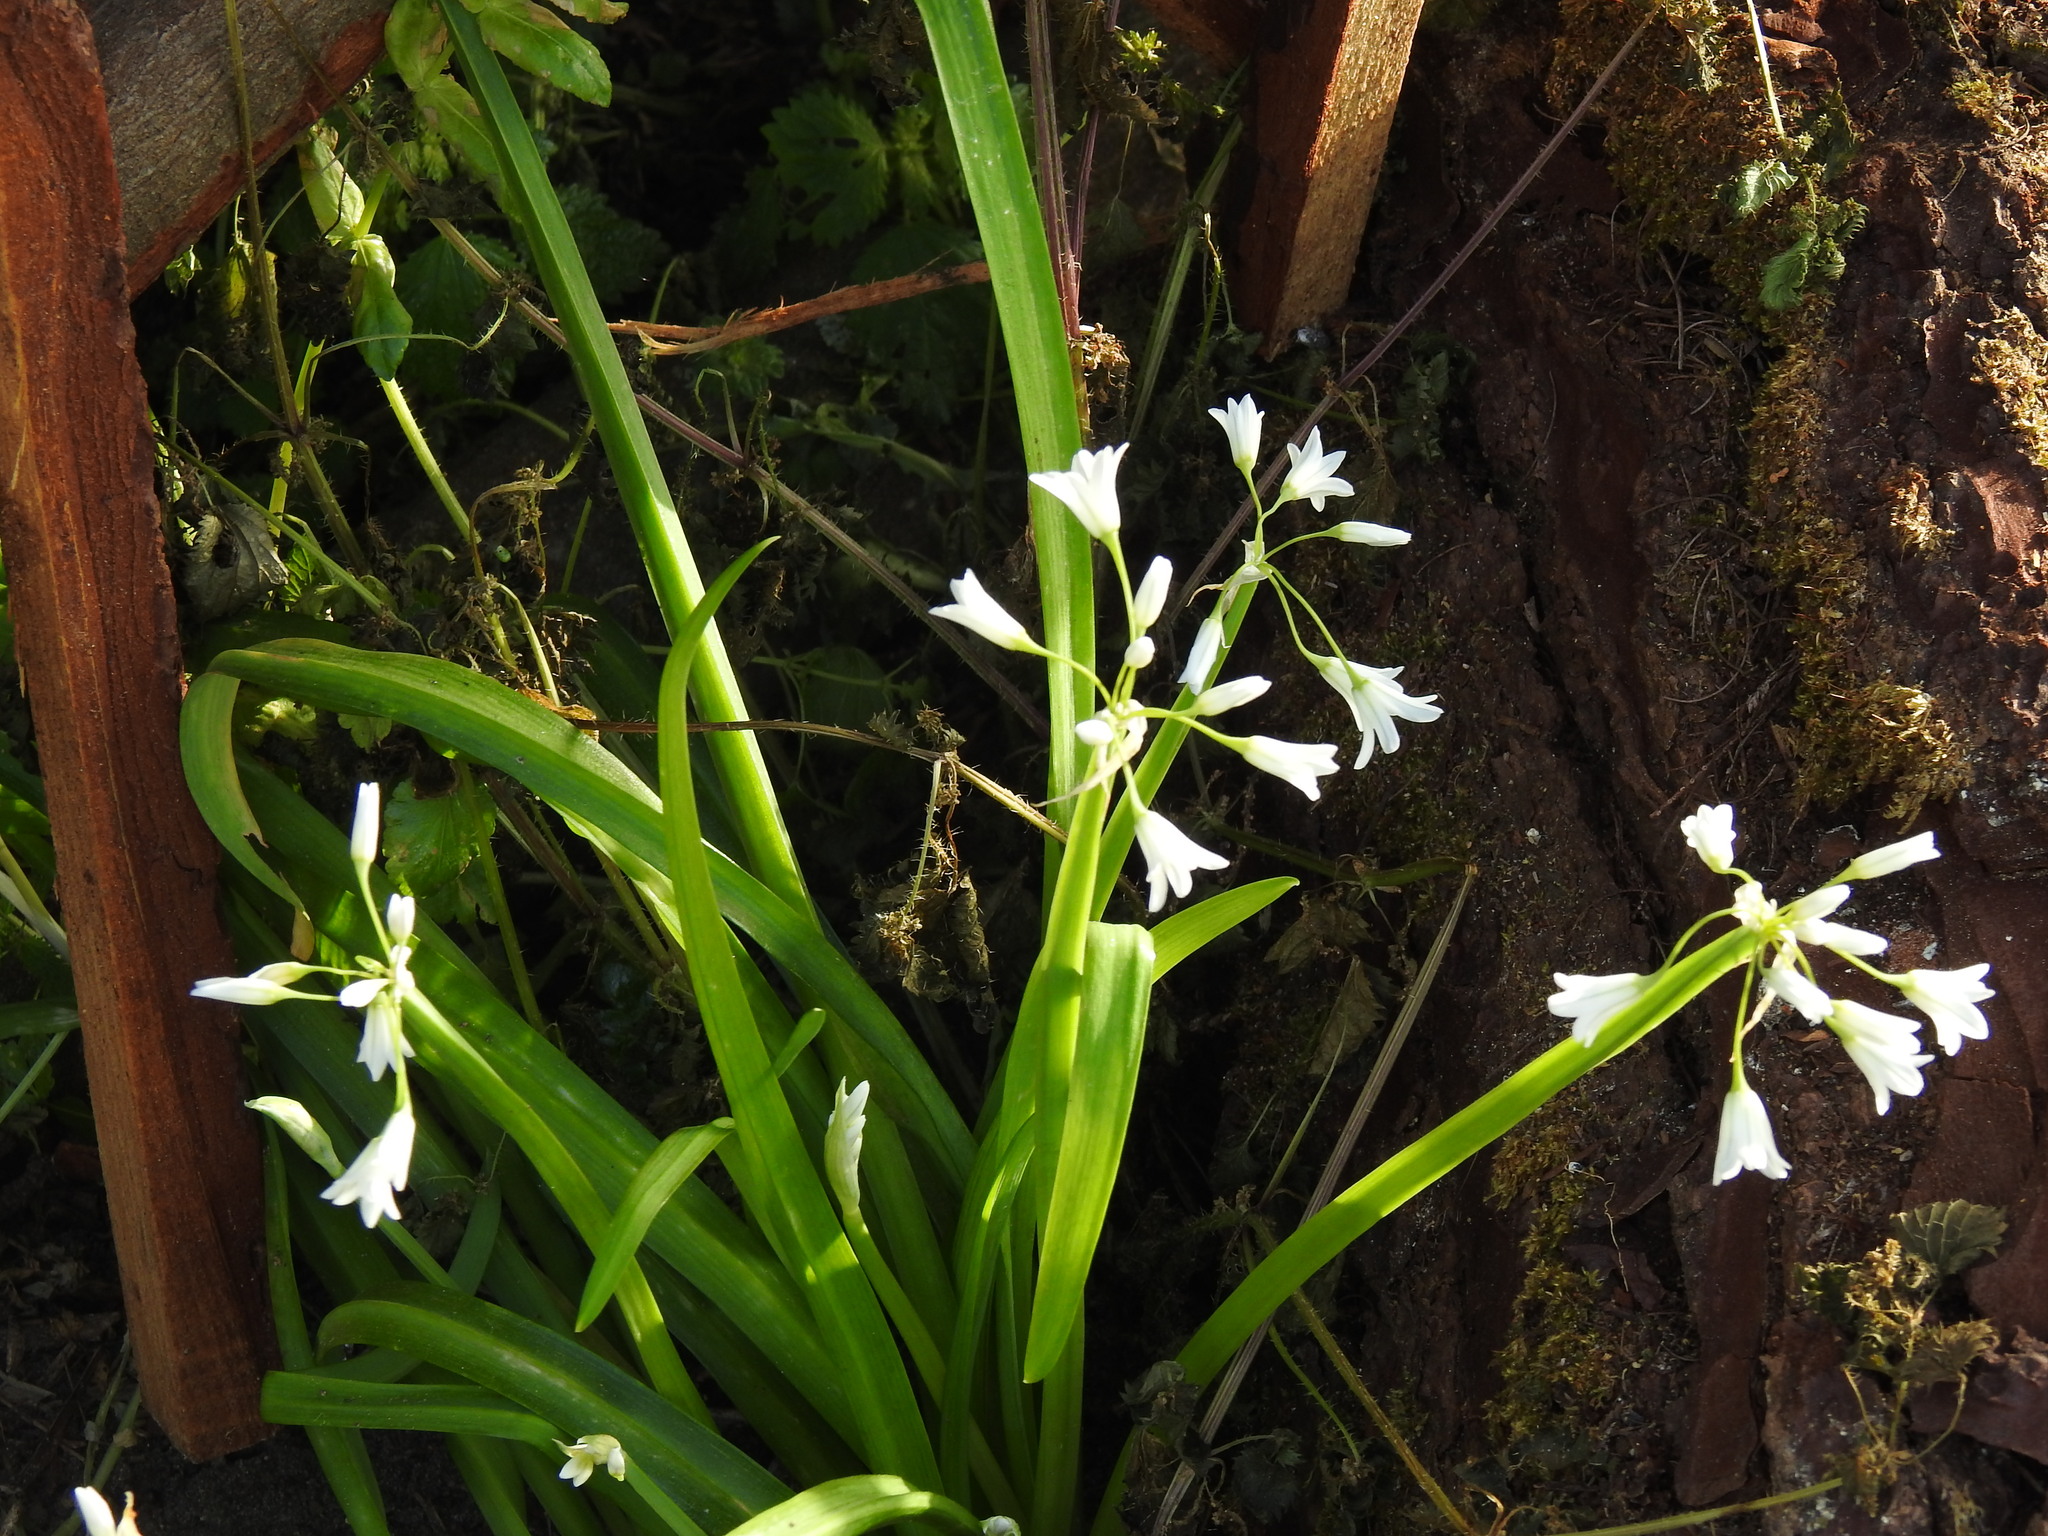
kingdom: Plantae
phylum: Tracheophyta
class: Liliopsida
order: Asparagales
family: Amaryllidaceae
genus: Allium
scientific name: Allium triquetrum
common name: Three-cornered garlic
